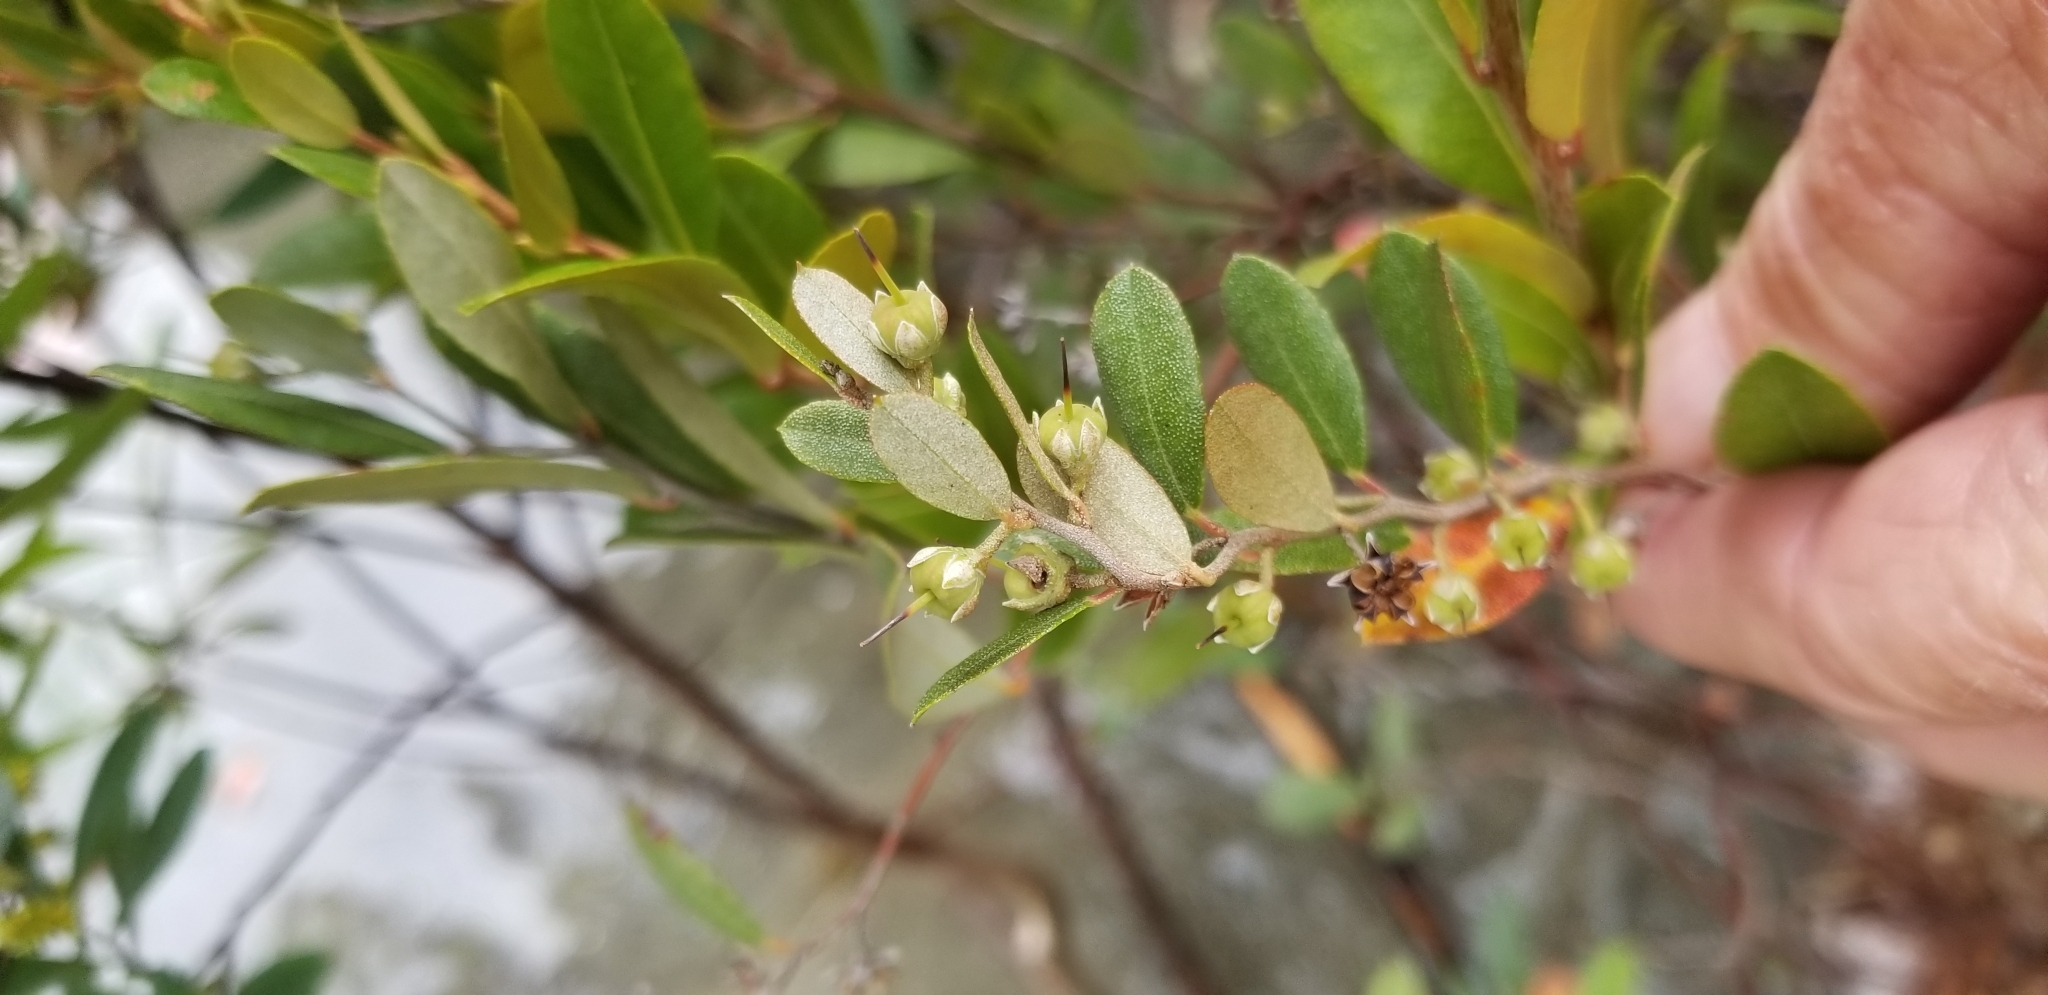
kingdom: Plantae
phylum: Tracheophyta
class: Magnoliopsida
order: Ericales
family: Ericaceae
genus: Chamaedaphne
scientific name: Chamaedaphne calyculata
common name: Leatherleaf
